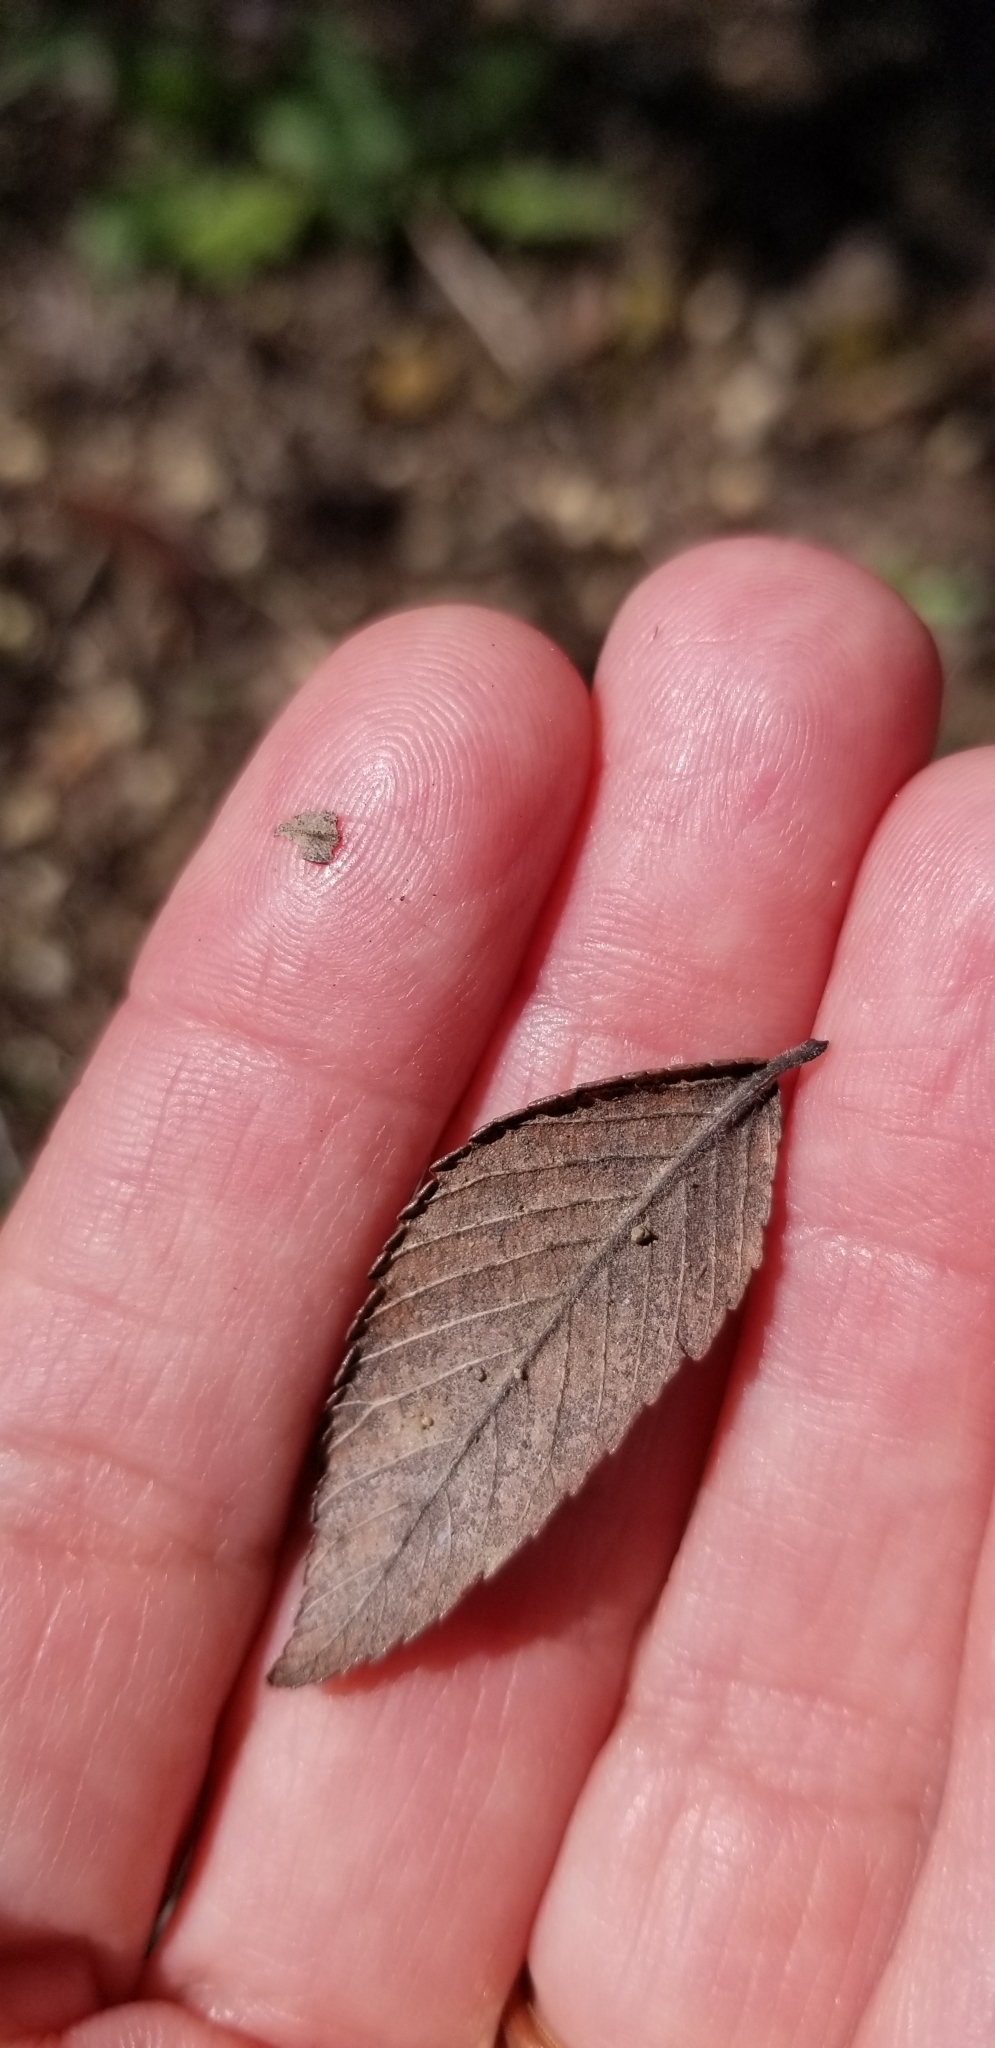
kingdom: Plantae
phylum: Tracheophyta
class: Magnoliopsida
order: Rosales
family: Ulmaceae
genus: Ulmus
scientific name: Ulmus crassifolia
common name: Basket elm
